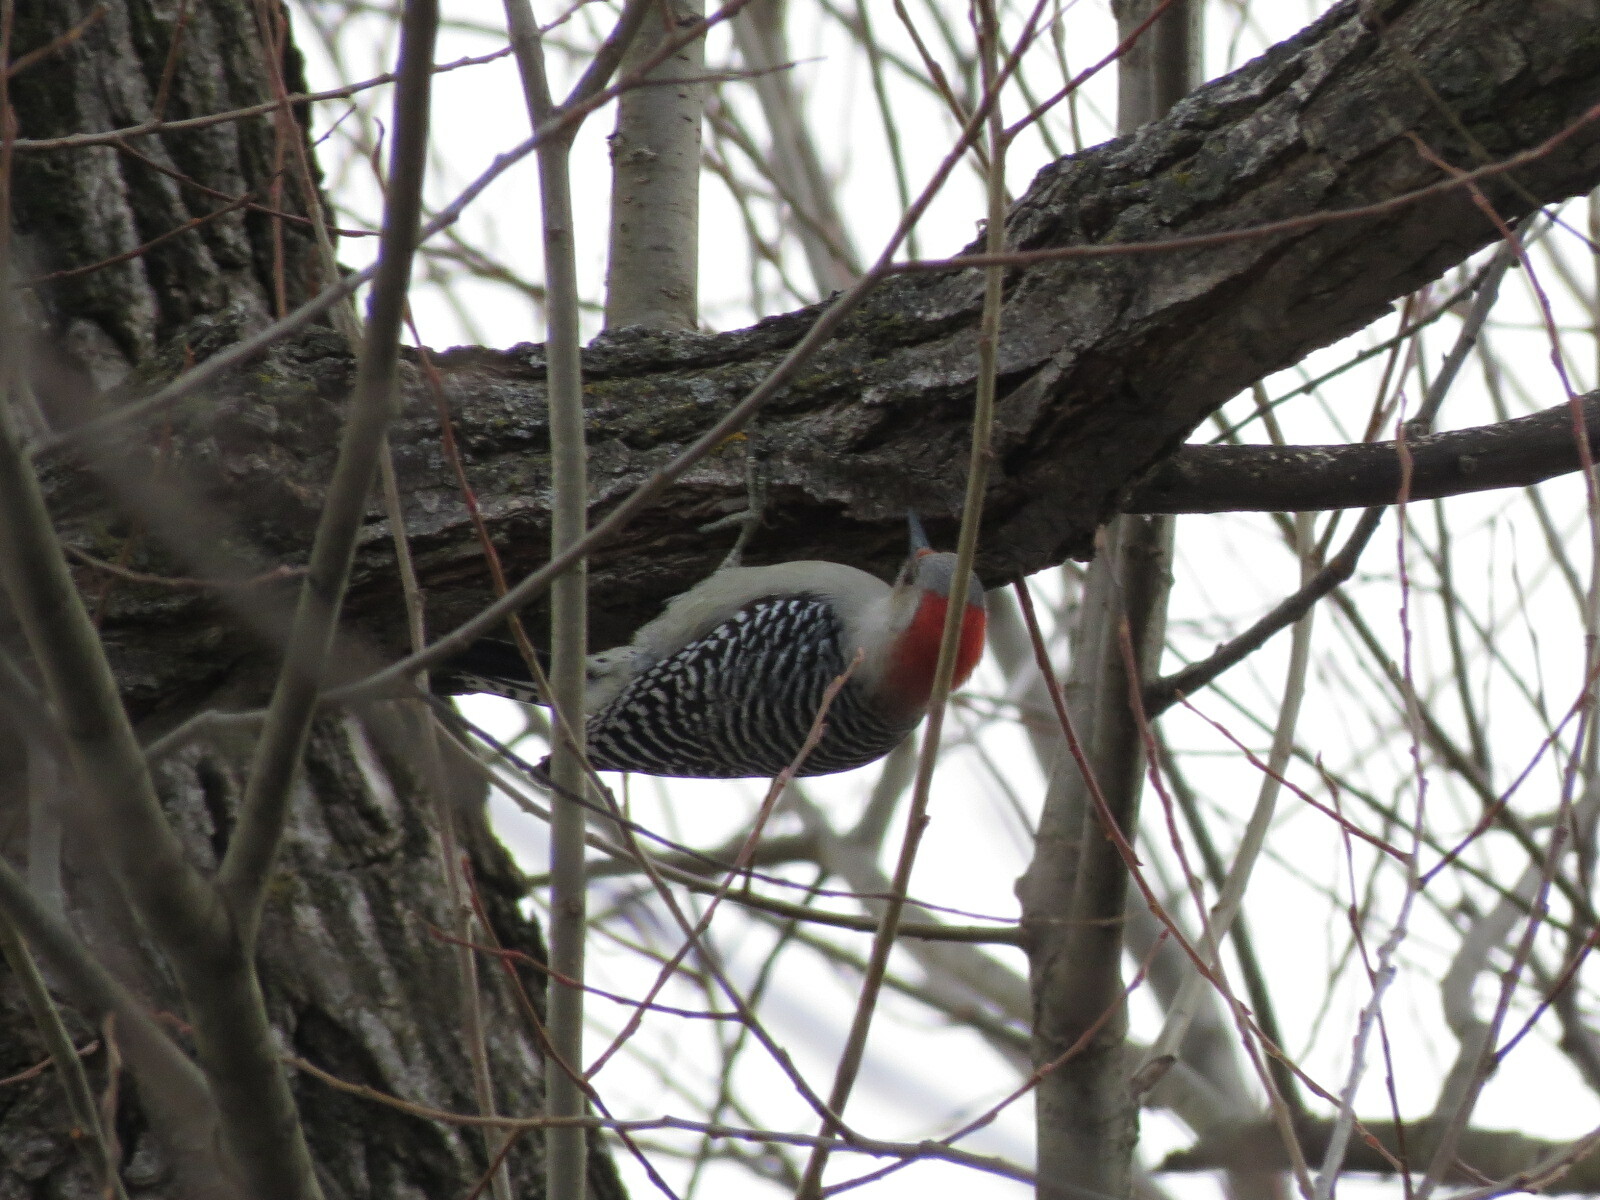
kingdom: Animalia
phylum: Chordata
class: Aves
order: Piciformes
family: Picidae
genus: Melanerpes
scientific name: Melanerpes carolinus
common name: Red-bellied woodpecker
